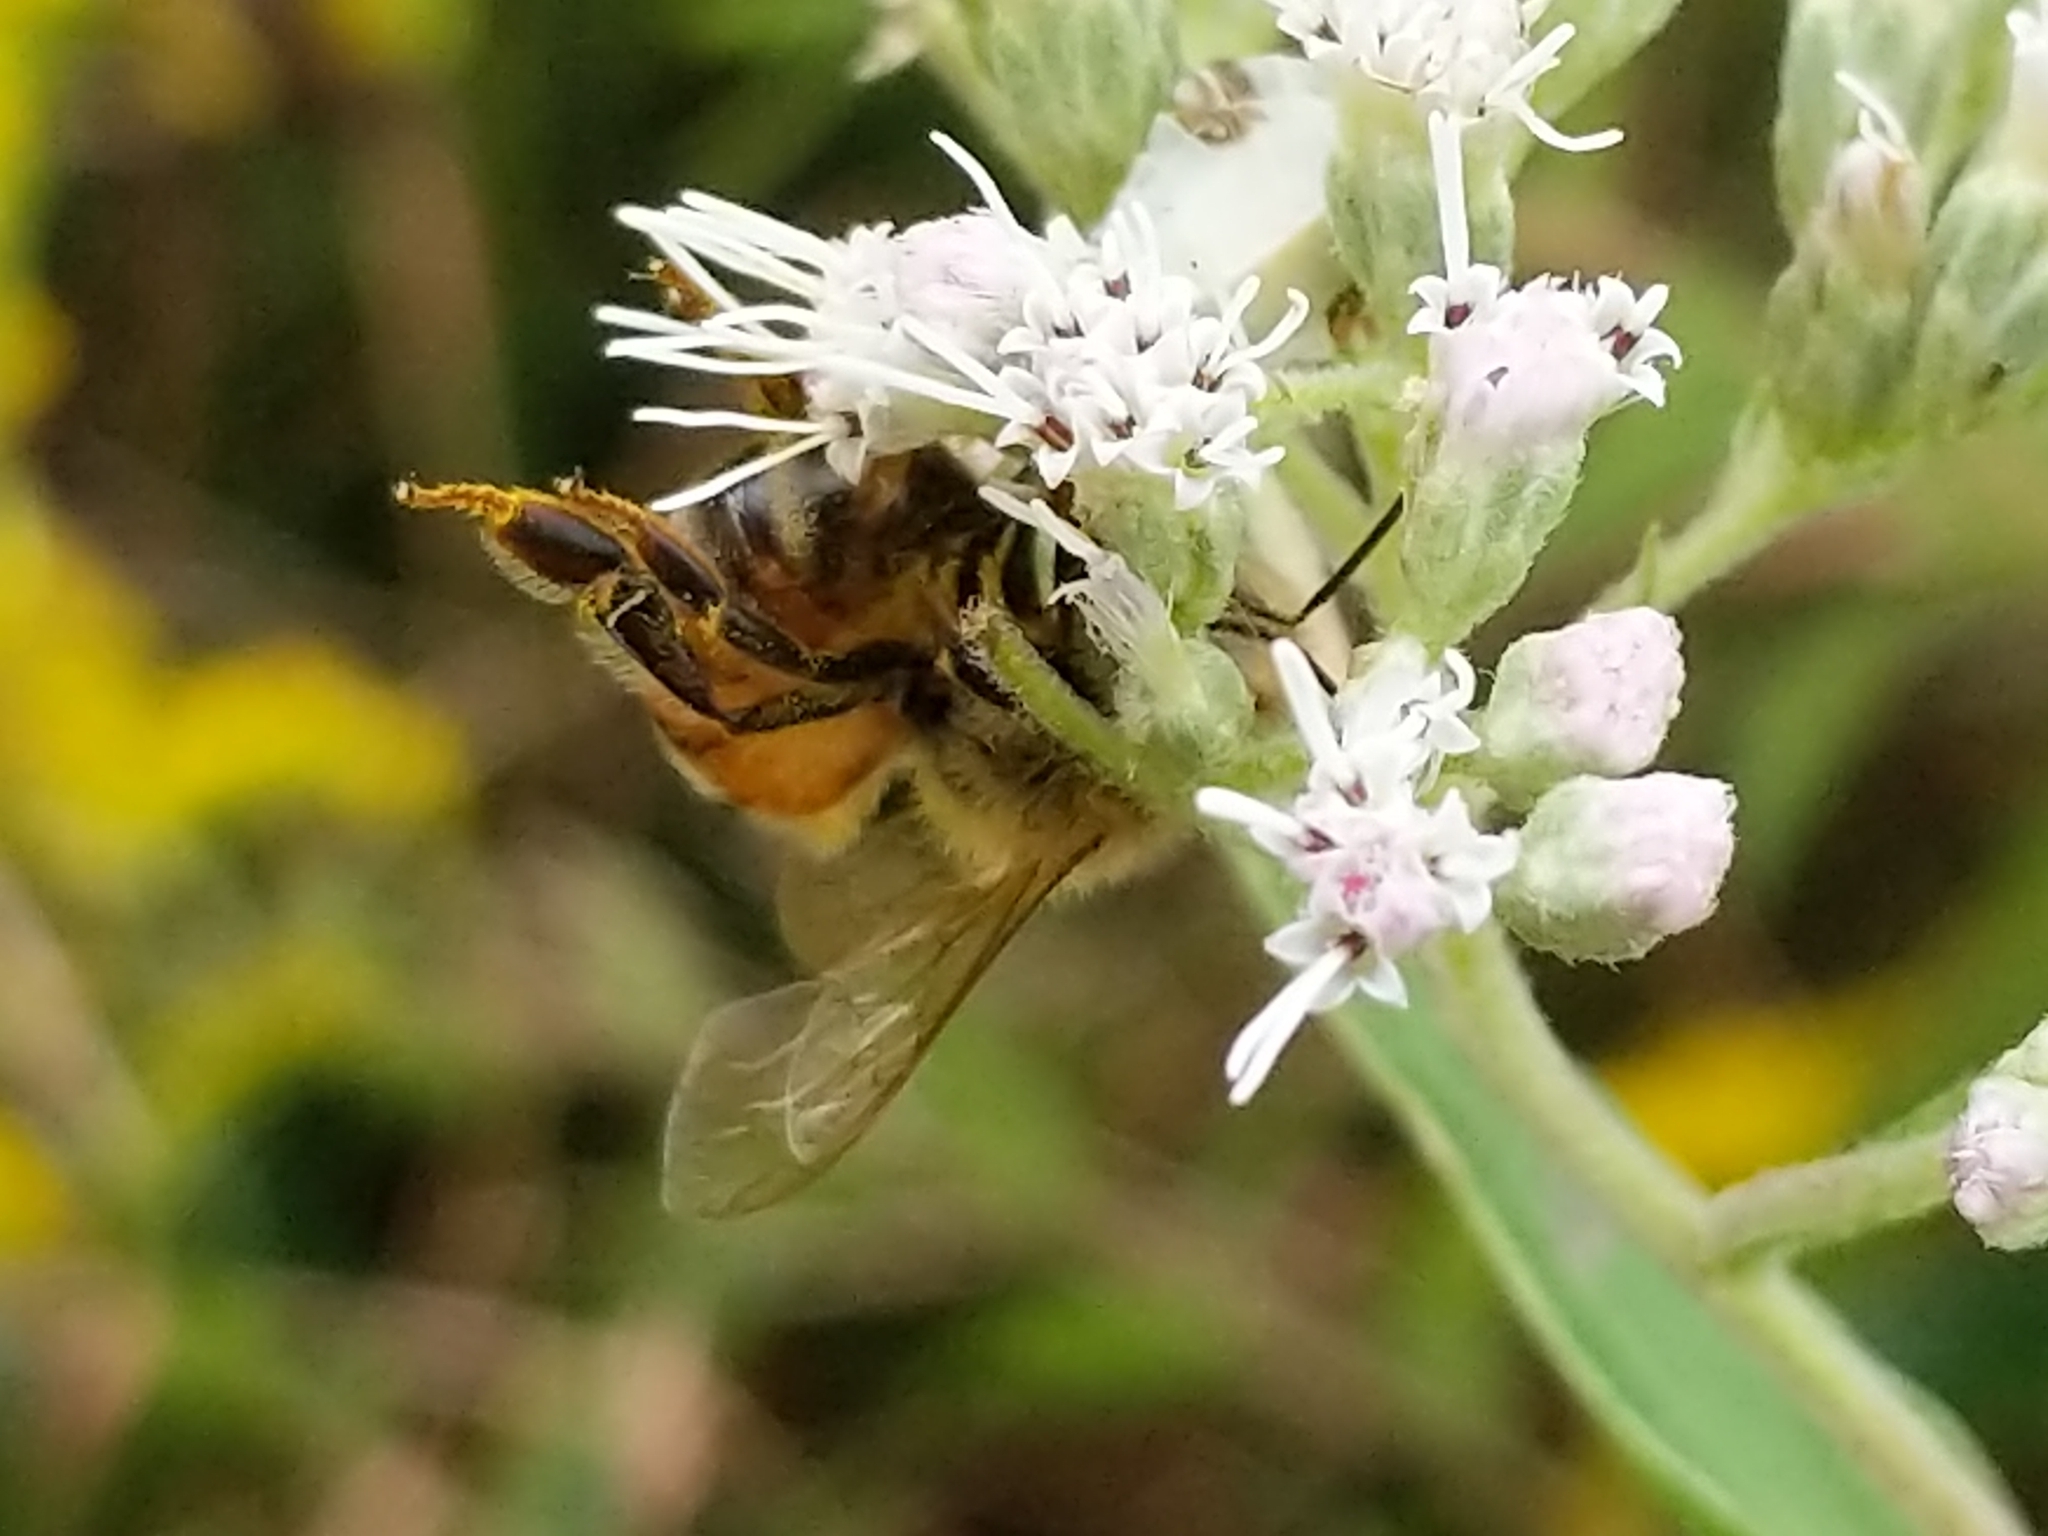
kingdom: Animalia
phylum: Arthropoda
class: Insecta
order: Hymenoptera
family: Apidae
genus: Apis
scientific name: Apis mellifera
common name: Honey bee
